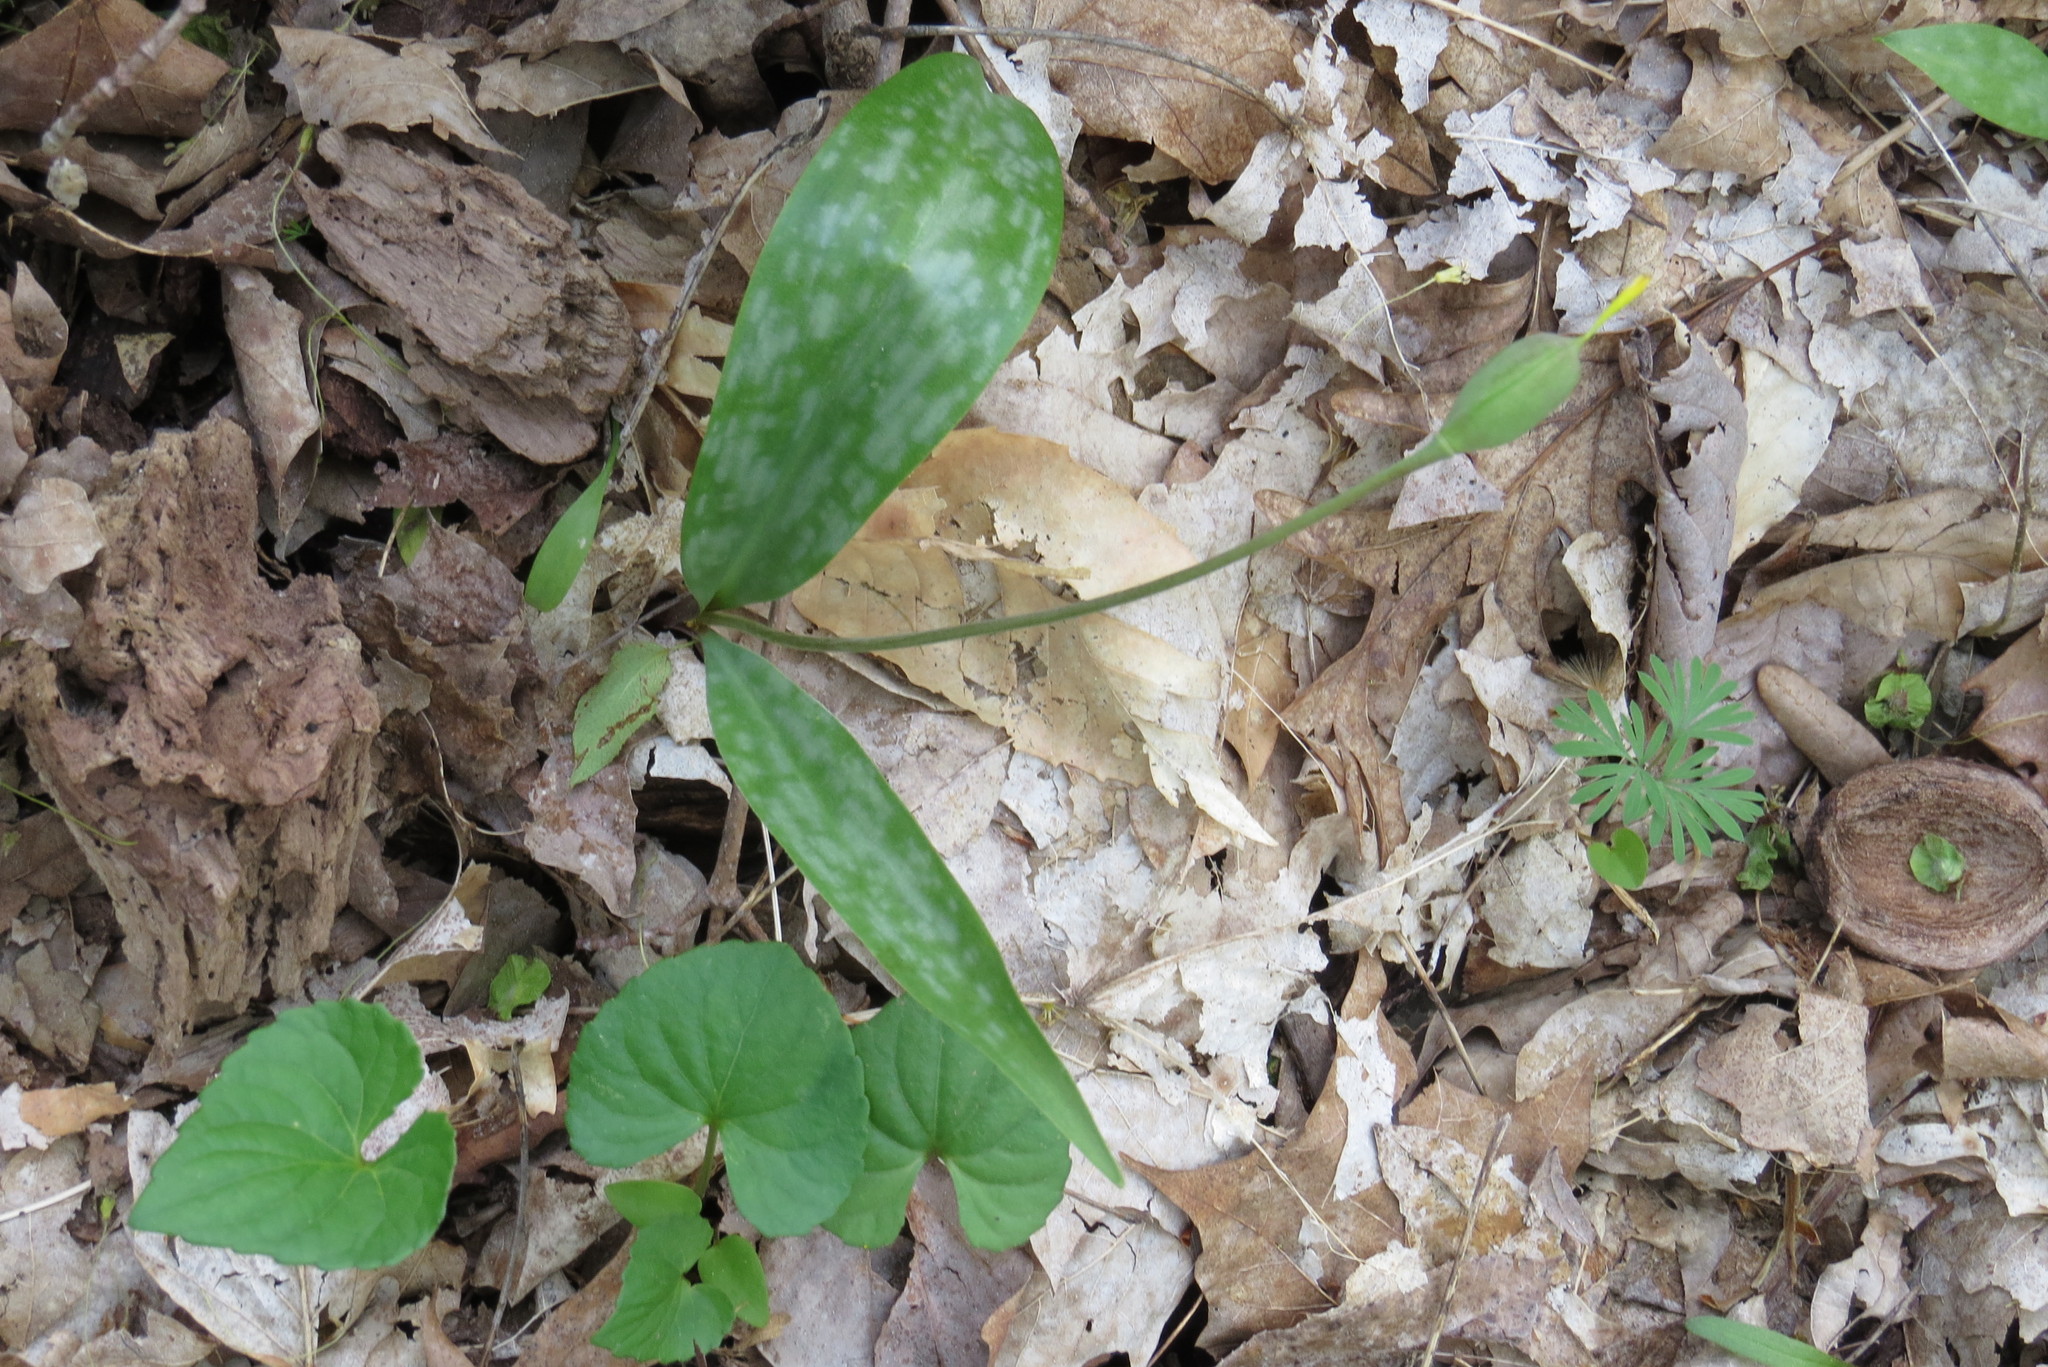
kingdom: Plantae
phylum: Tracheophyta
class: Liliopsida
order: Liliales
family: Liliaceae
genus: Erythronium
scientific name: Erythronium americanum
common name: Yellow adder's-tongue
